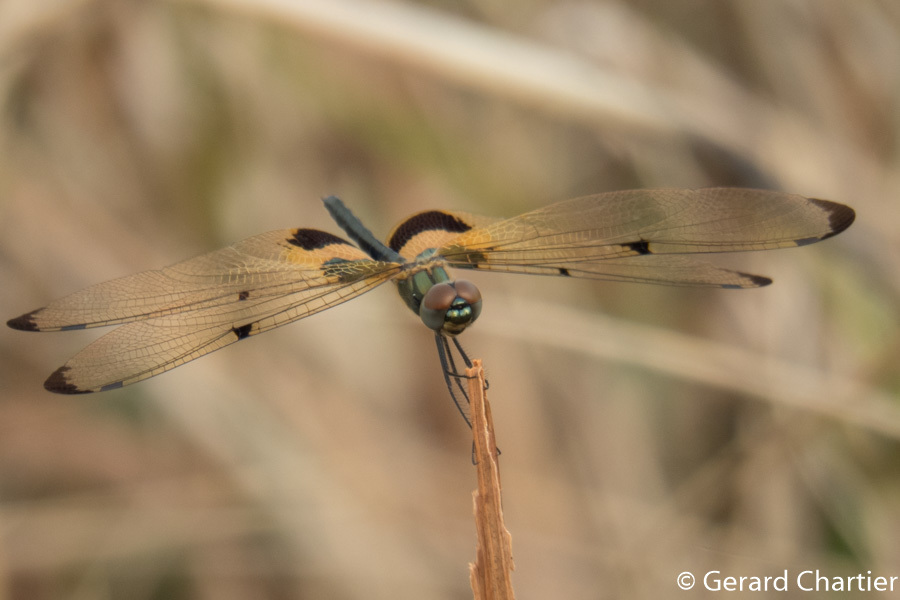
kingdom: Animalia
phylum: Arthropoda
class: Insecta
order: Odonata
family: Libellulidae
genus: Rhyothemis
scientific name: Rhyothemis phyllis
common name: Yellow-barred flutterer
